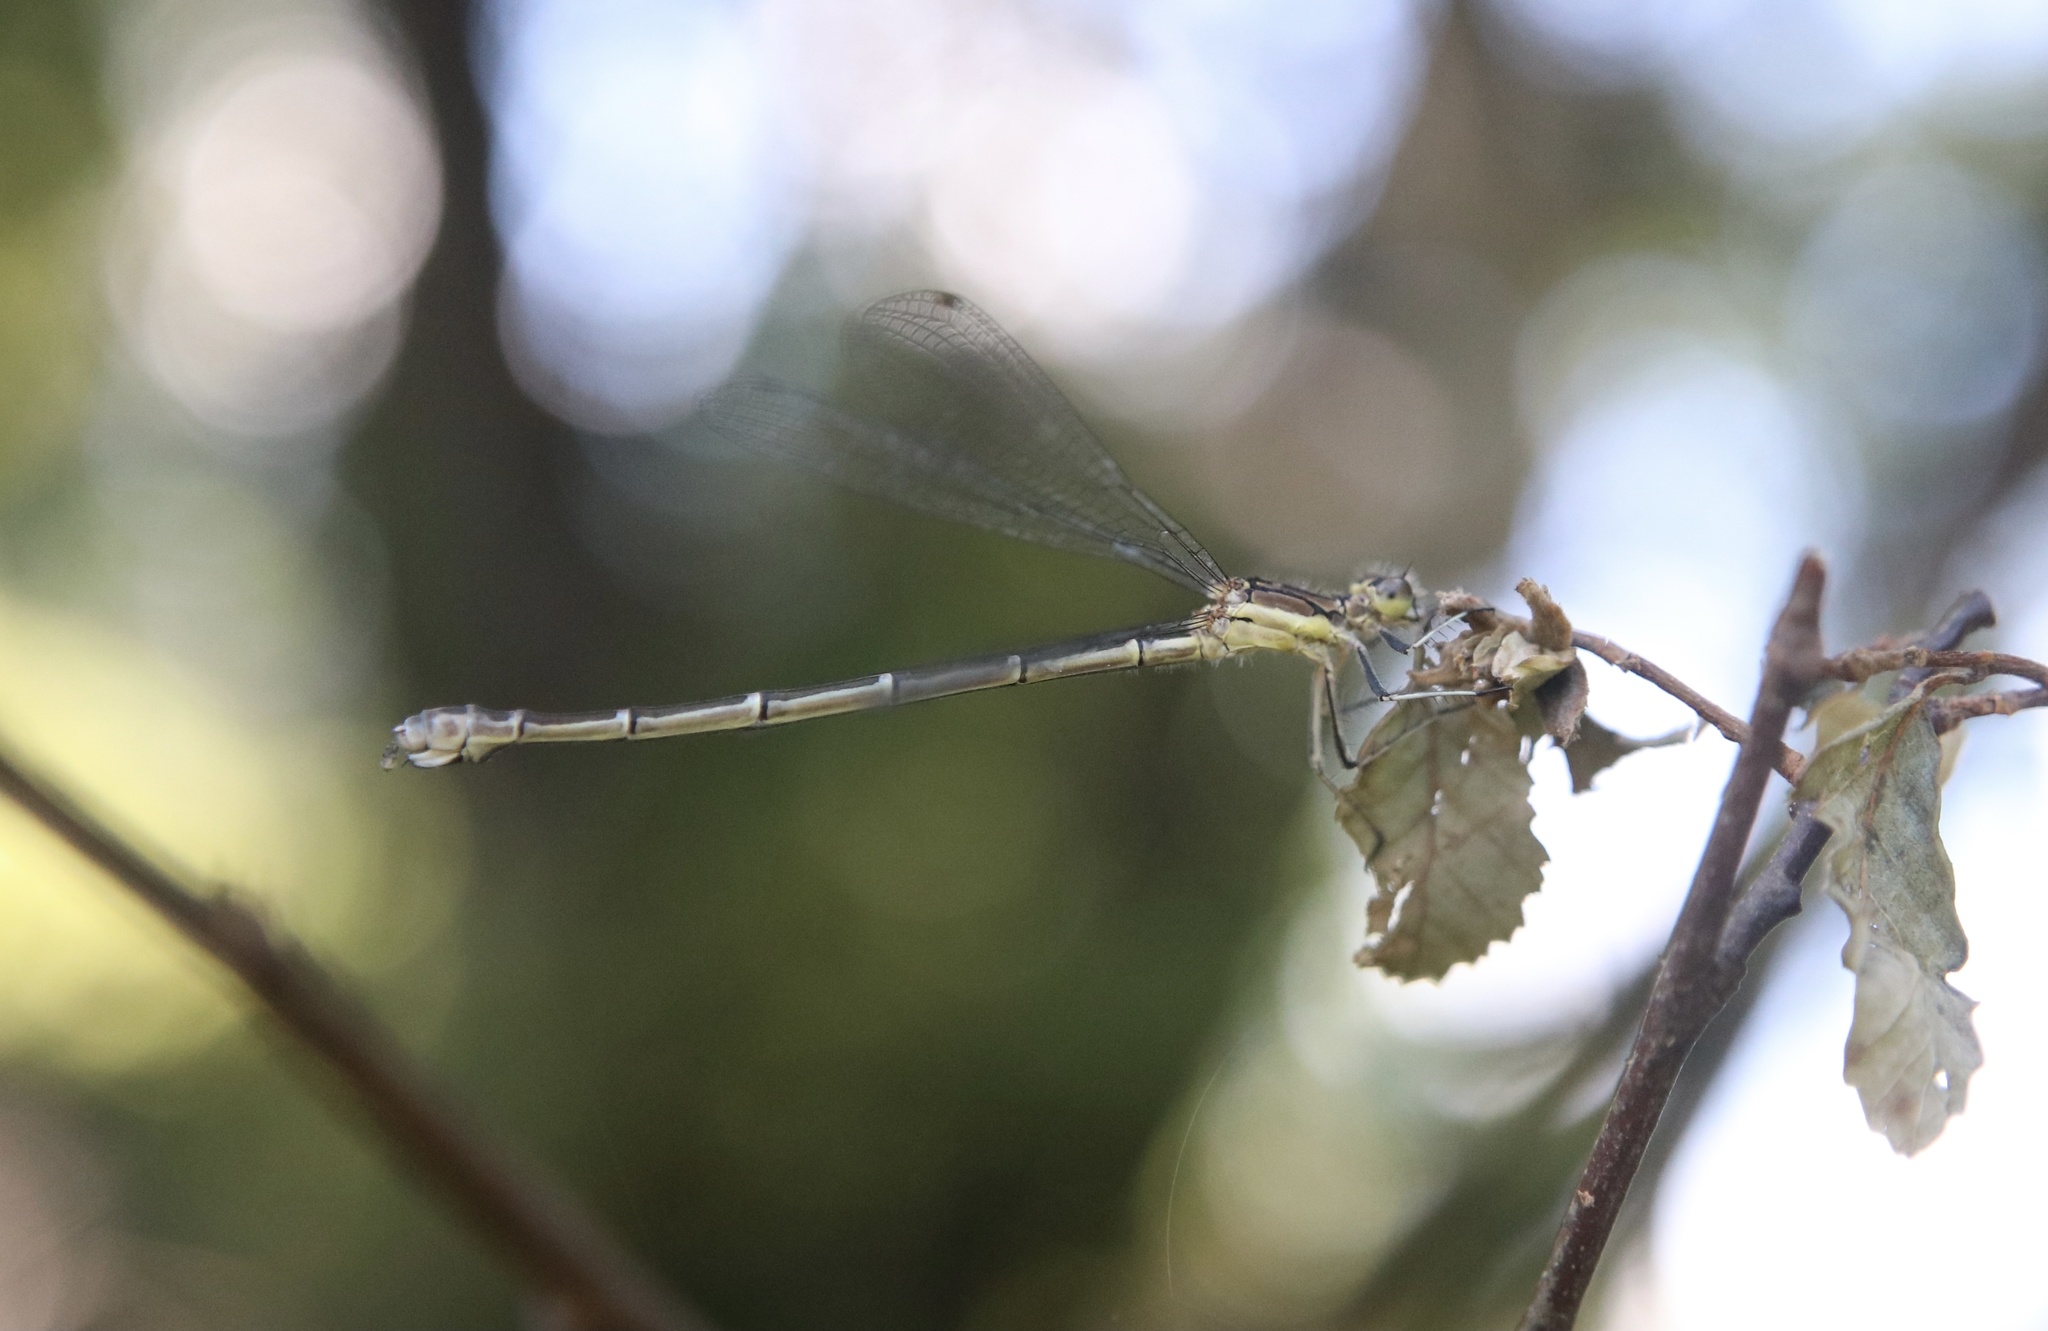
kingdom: Animalia
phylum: Arthropoda
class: Insecta
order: Odonata
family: Coenagrionidae
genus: Antiagrion
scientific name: Antiagrion gayi
